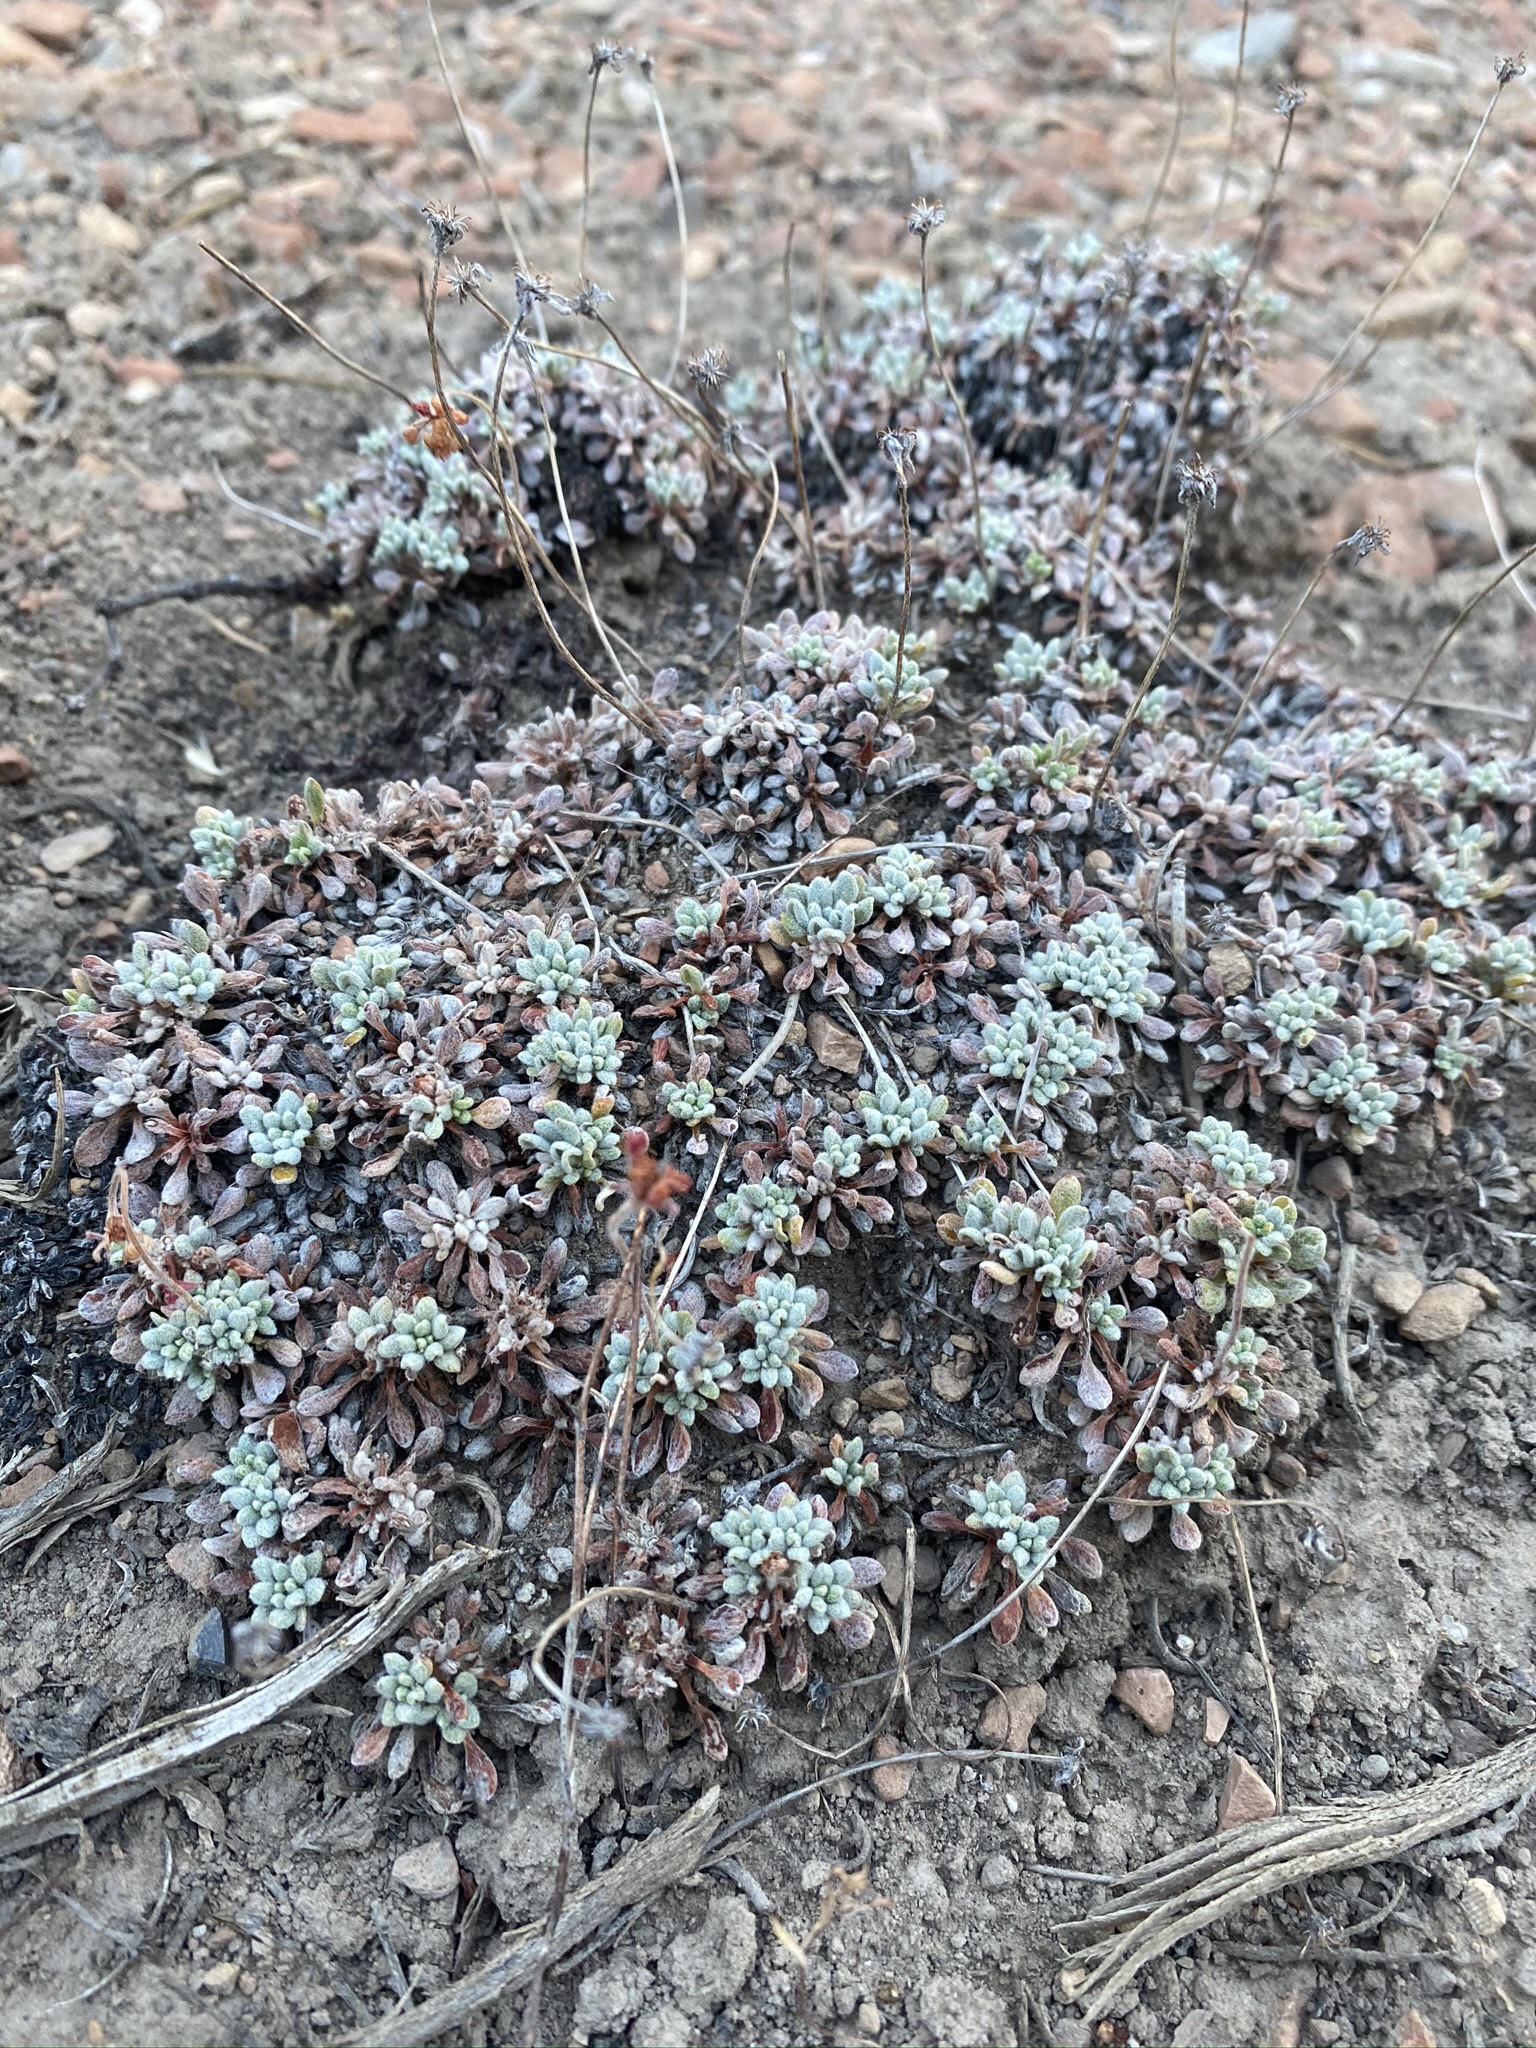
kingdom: Plantae
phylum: Tracheophyta
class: Magnoliopsida
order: Caryophyllales
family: Polygonaceae
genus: Eriogonum
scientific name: Eriogonum caespitosum
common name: Matted wild buckwheat
